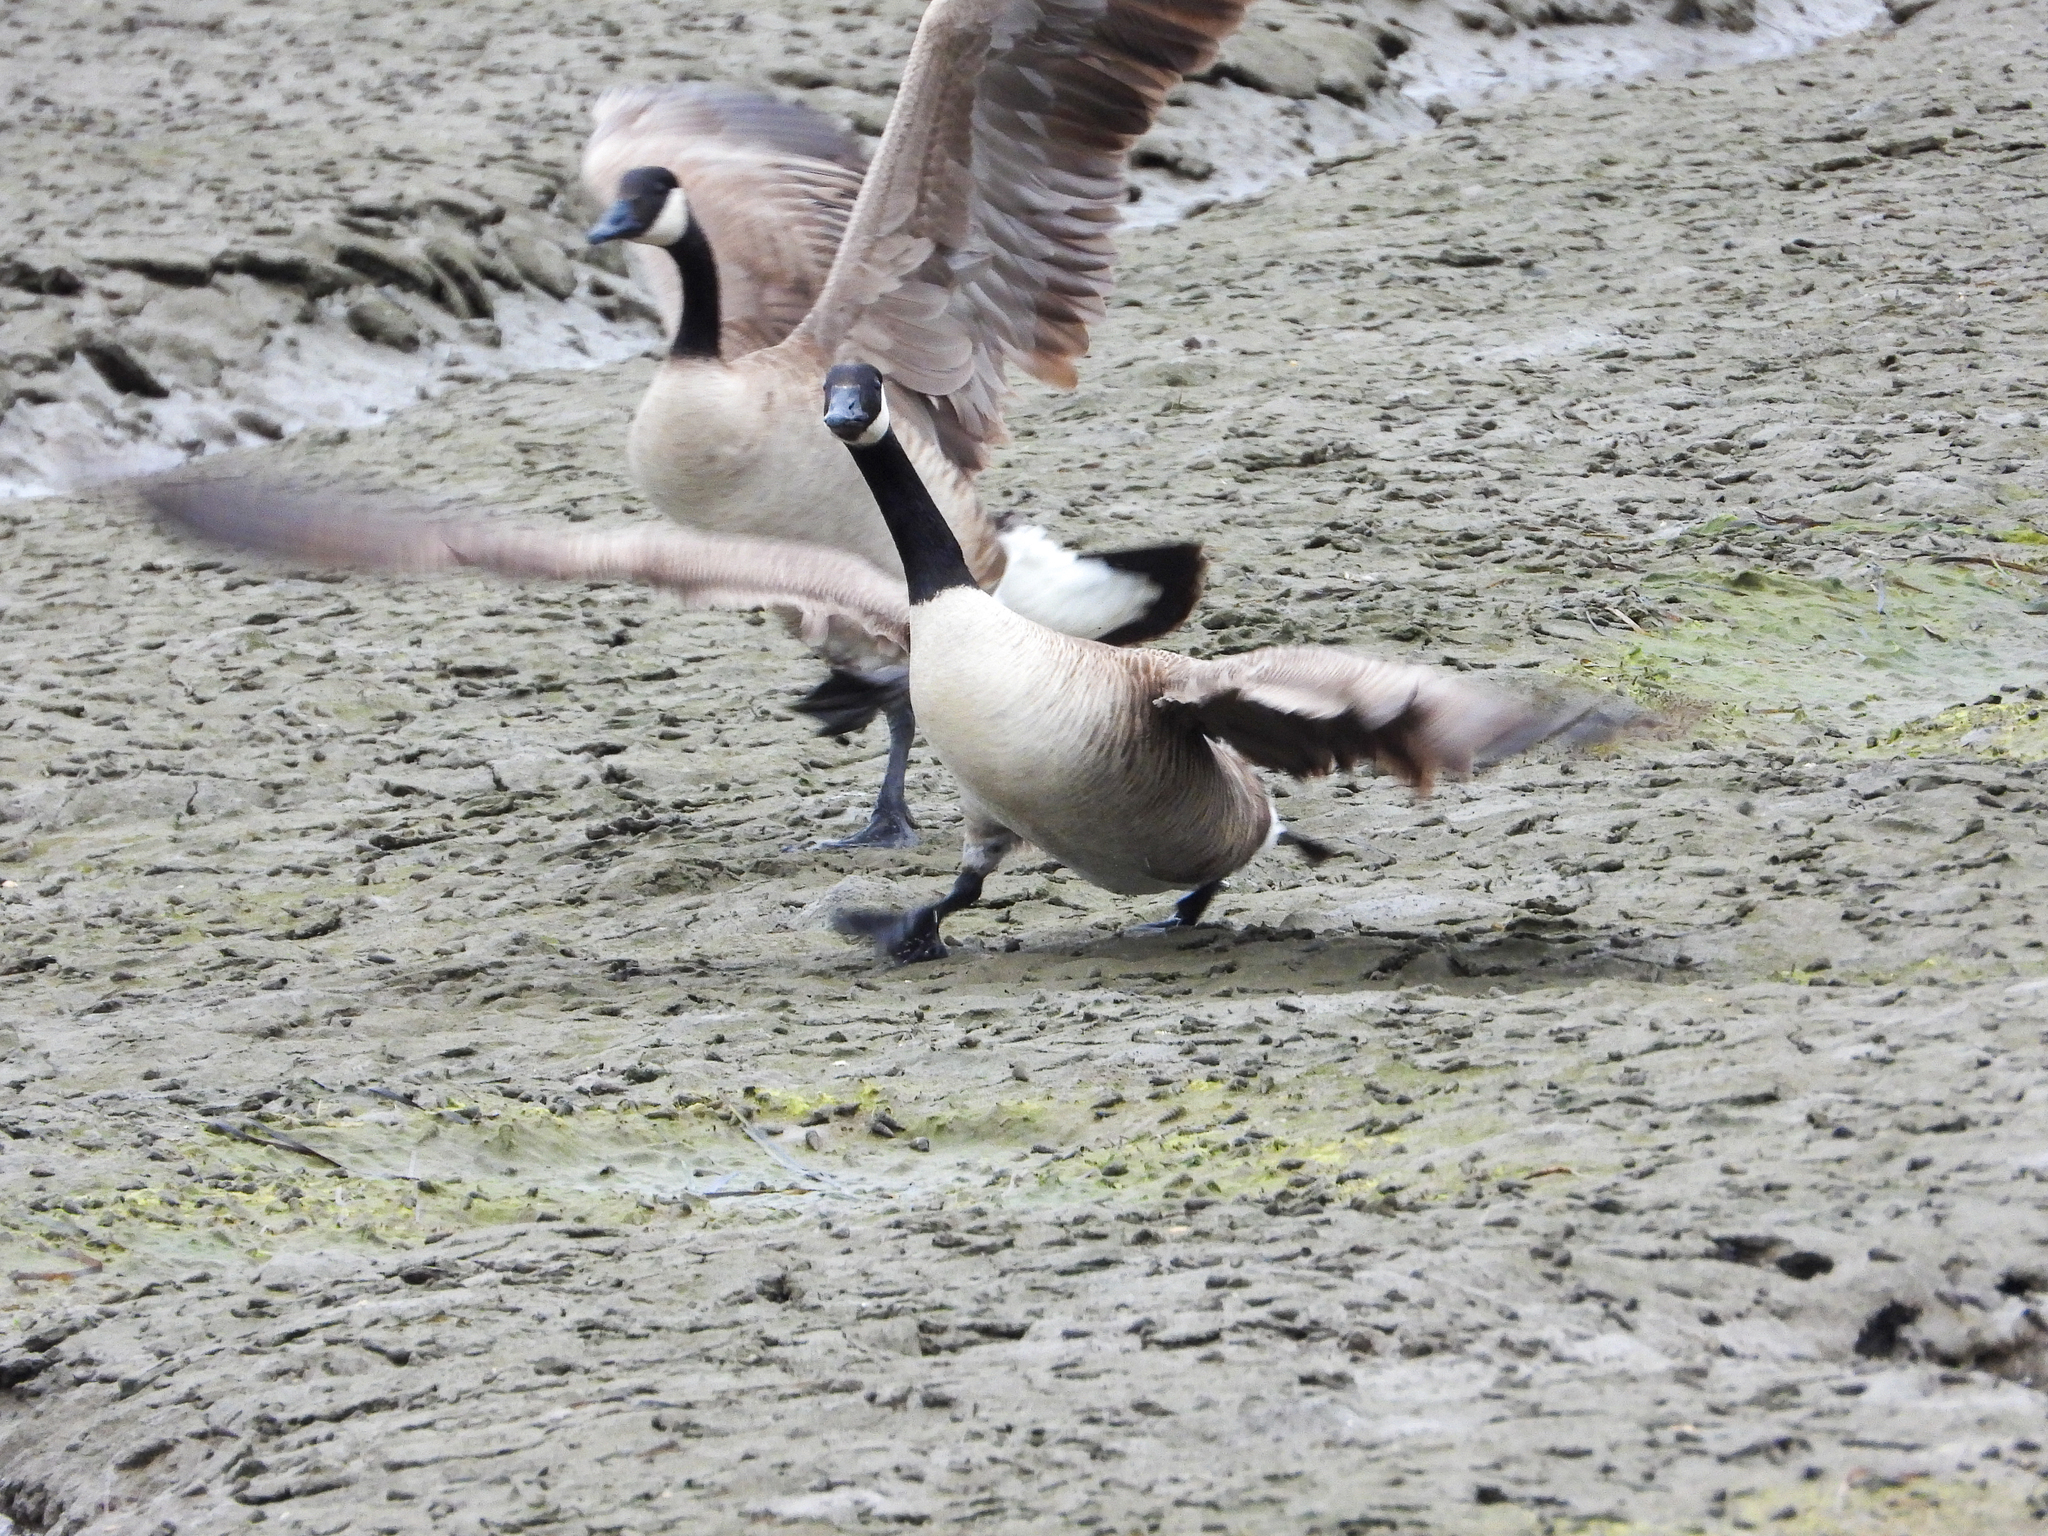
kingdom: Animalia
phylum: Chordata
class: Aves
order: Anseriformes
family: Anatidae
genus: Branta
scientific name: Branta canadensis
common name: Canada goose
